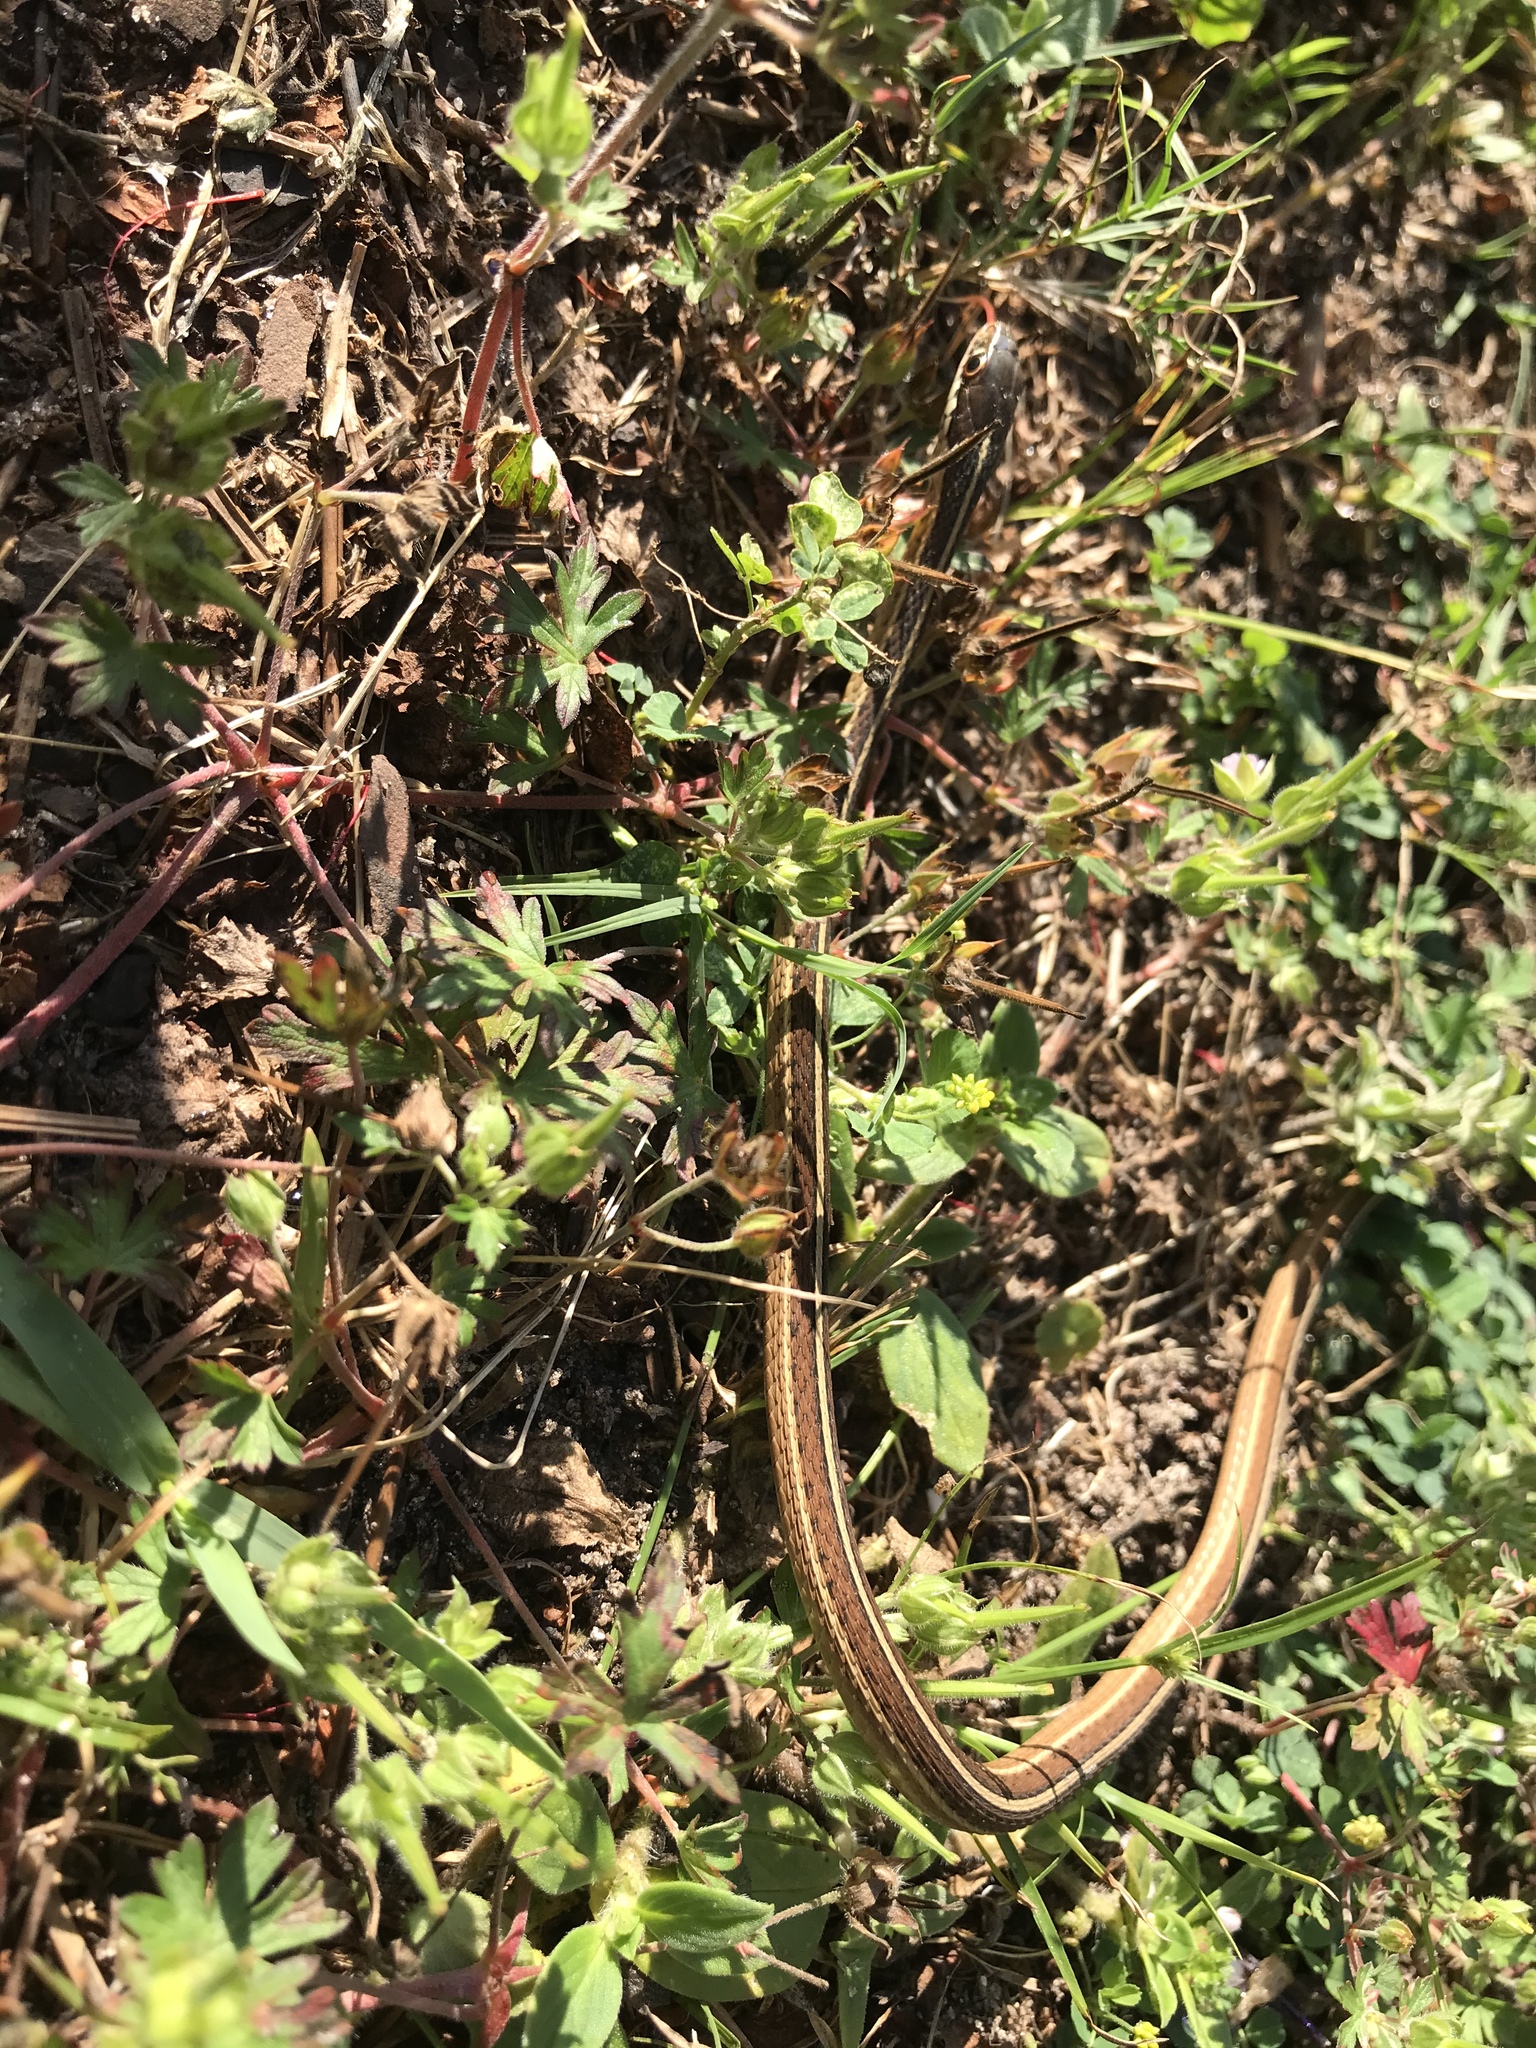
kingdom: Animalia
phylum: Chordata
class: Squamata
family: Colubridae
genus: Thamnophis
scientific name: Thamnophis saurita
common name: Eastern ribbonsnake
